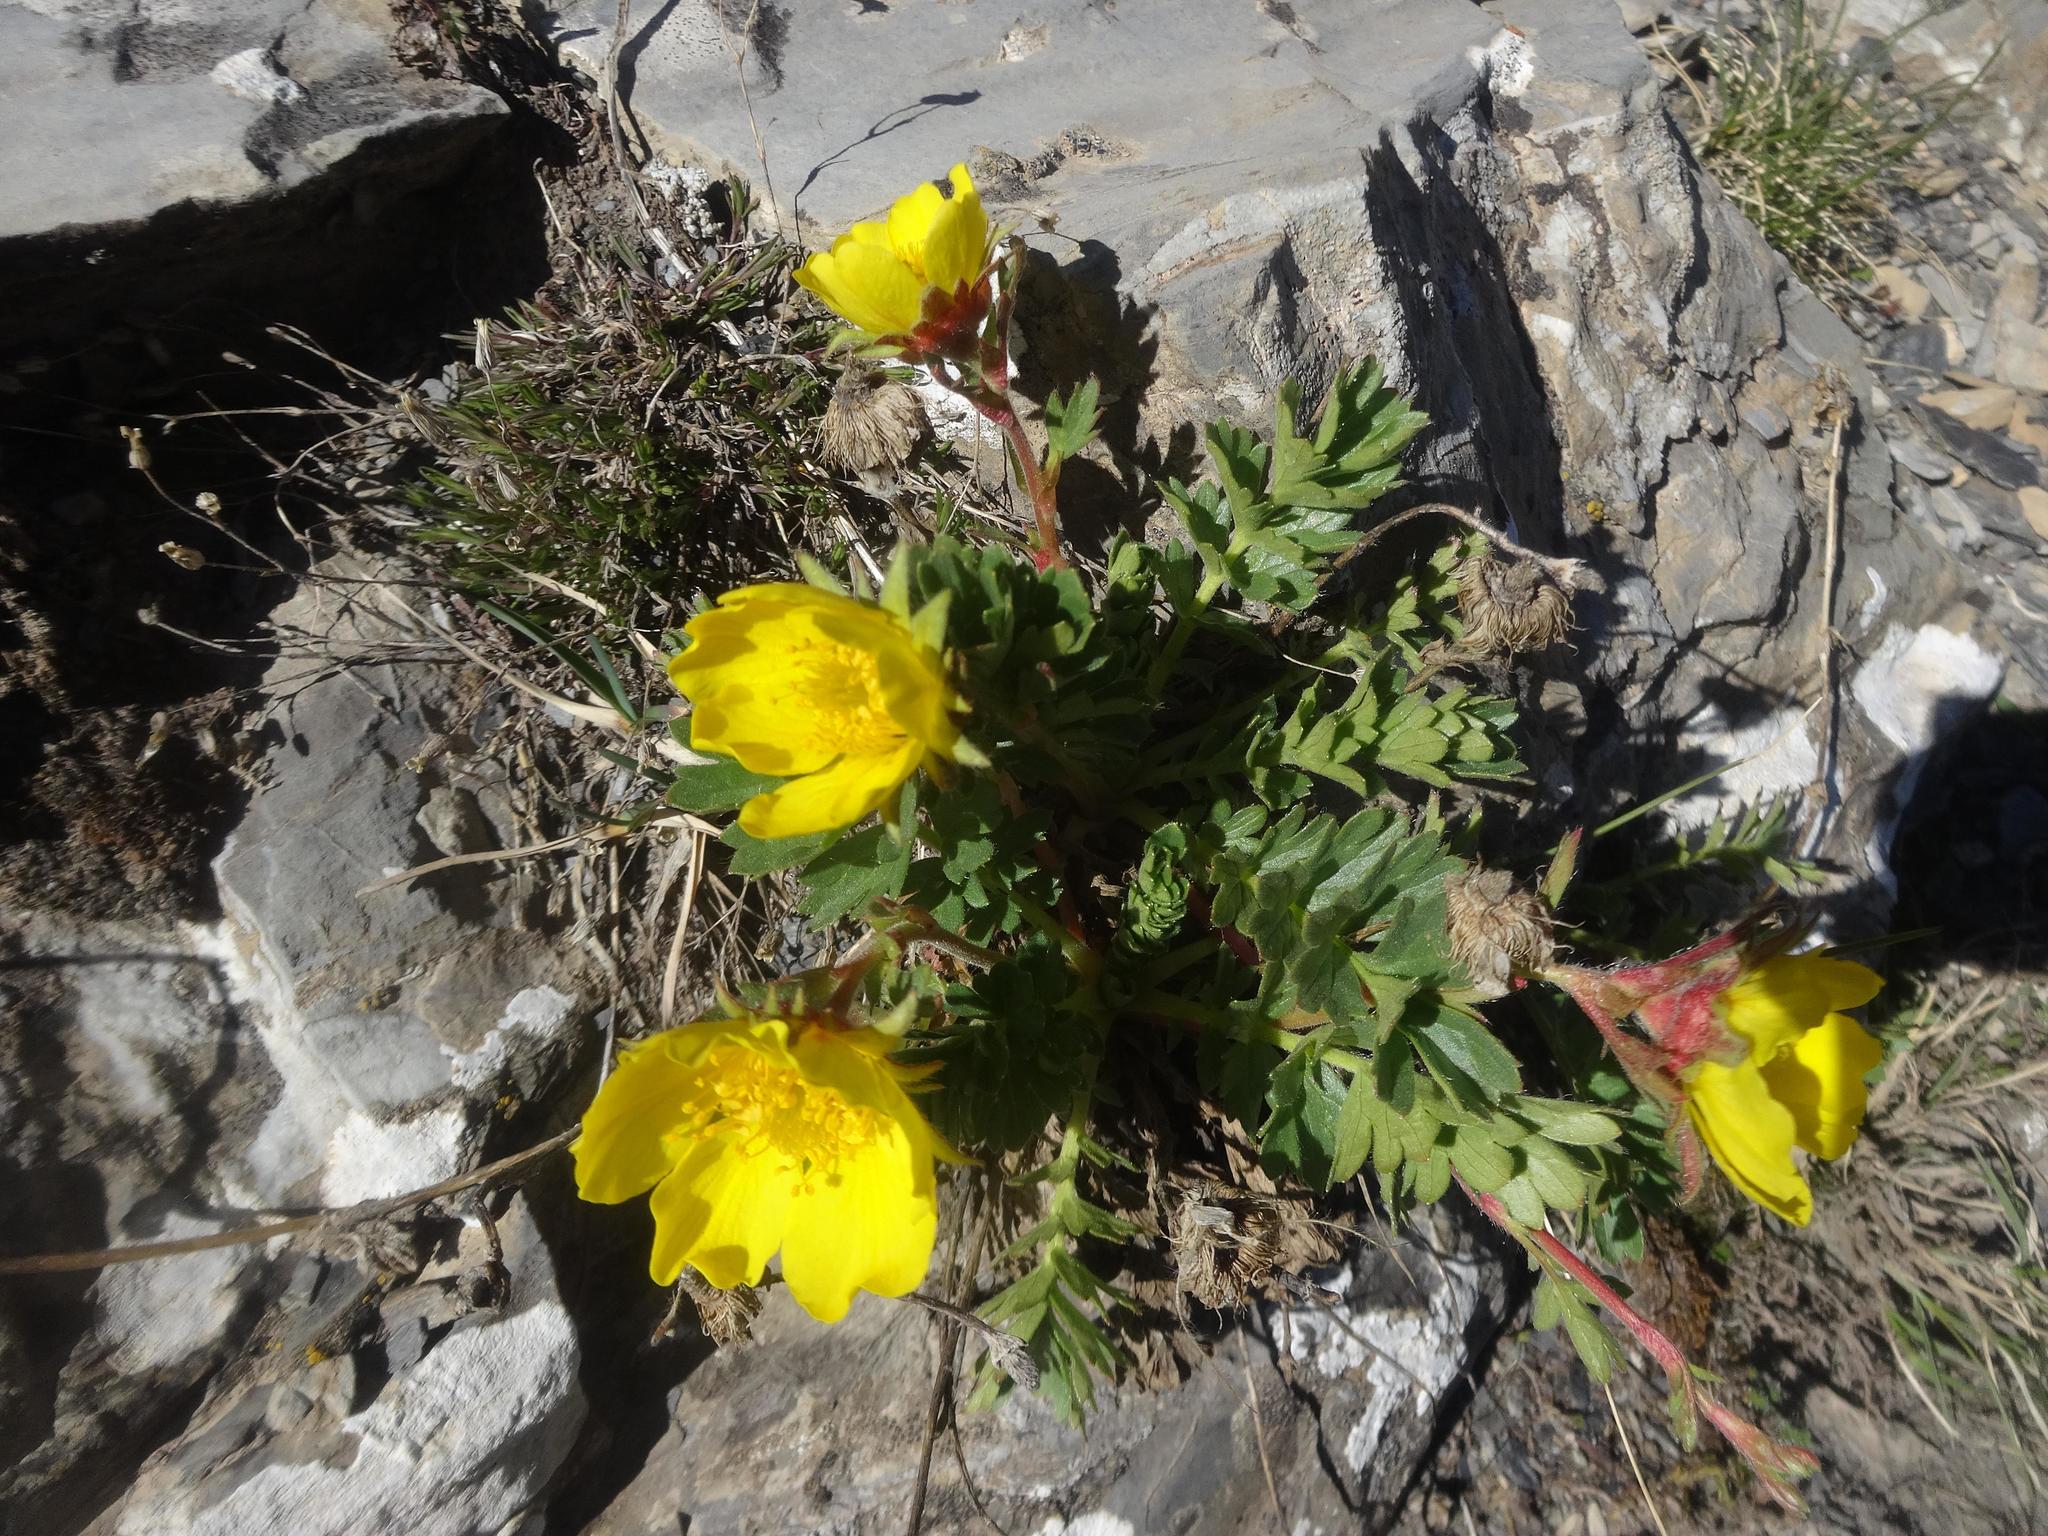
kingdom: Plantae
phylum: Tracheophyta
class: Magnoliopsida
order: Rosales
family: Rosaceae
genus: Geum
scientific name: Geum montanum
